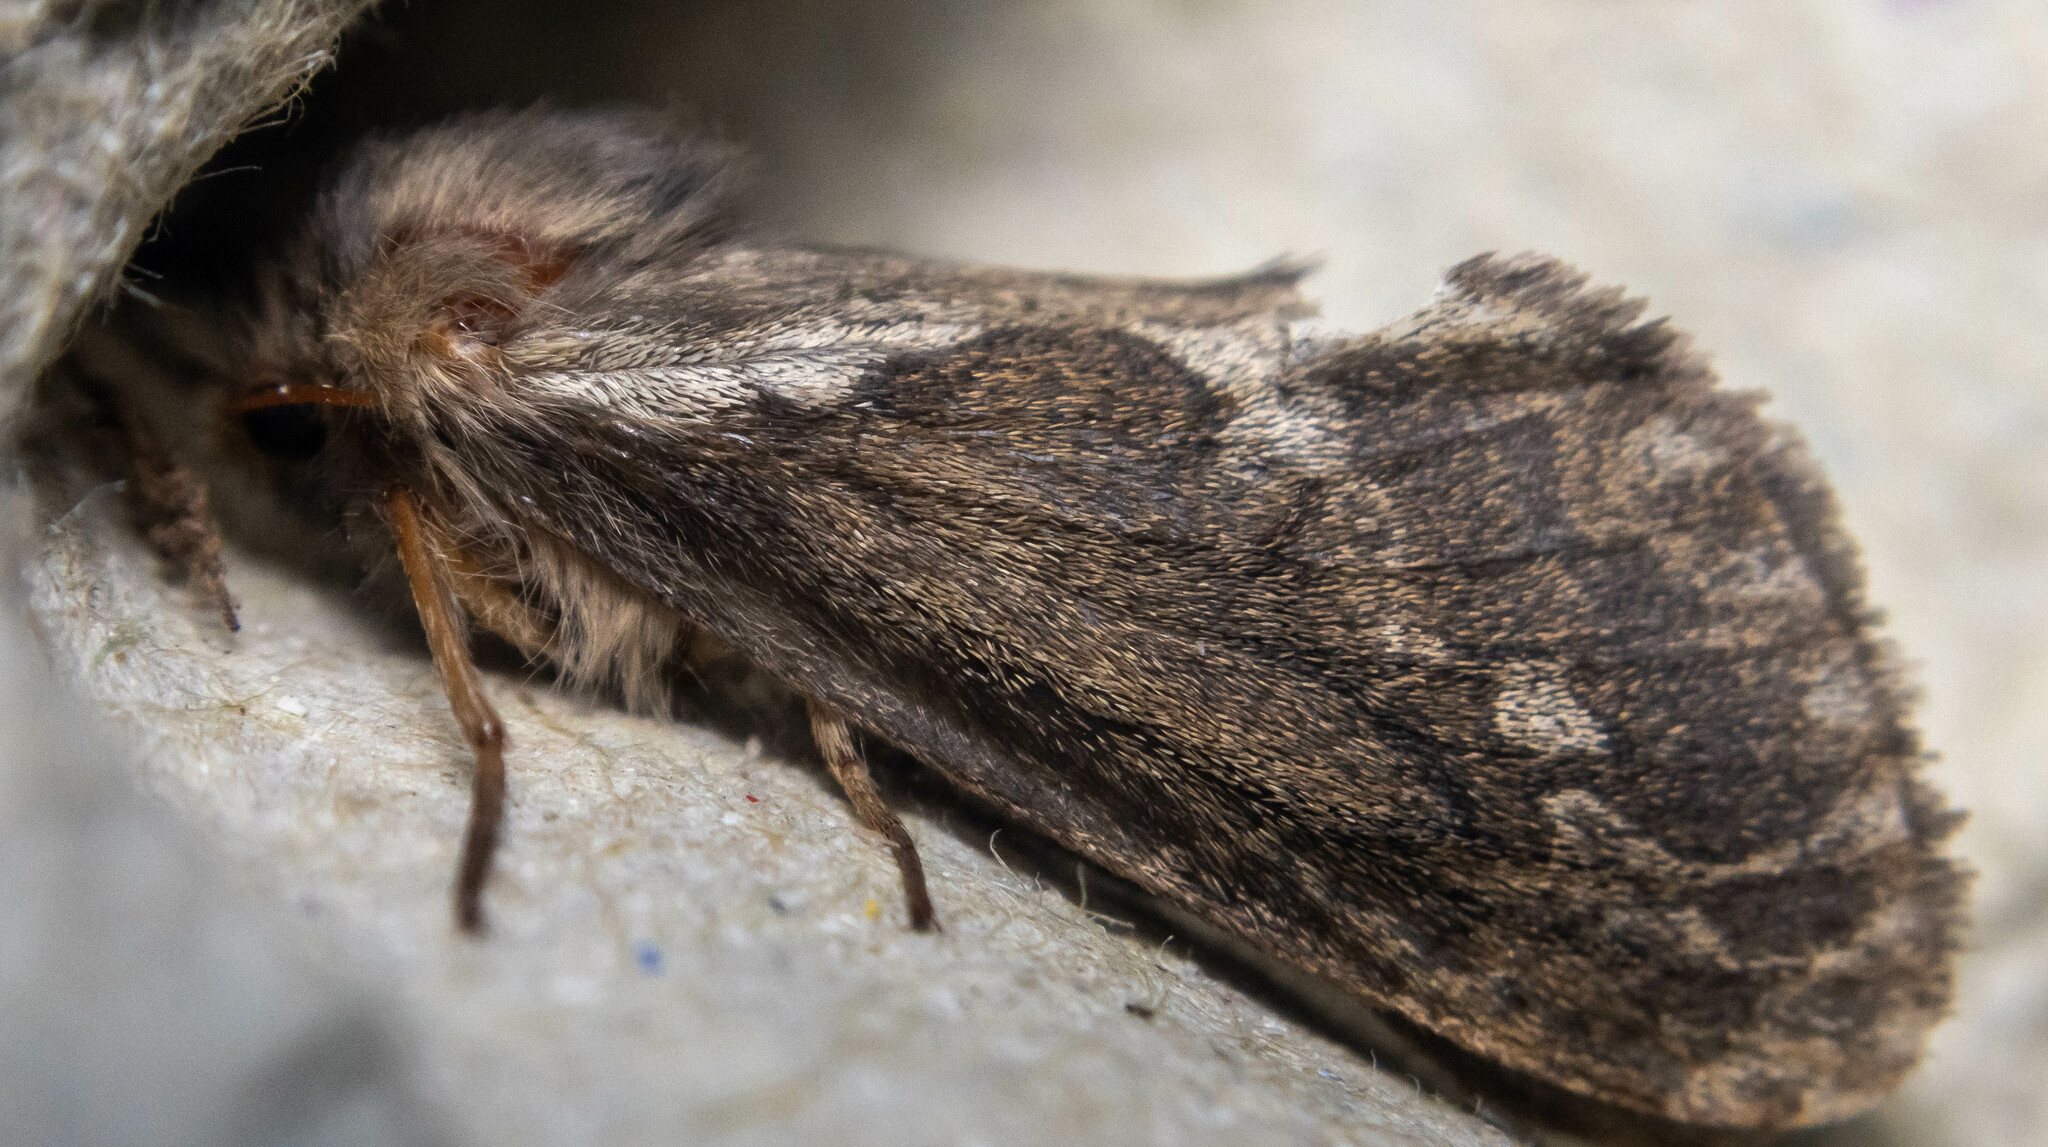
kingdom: Animalia
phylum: Arthropoda
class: Insecta
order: Lepidoptera
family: Hepialidae
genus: Korscheltellus
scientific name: Korscheltellus lupulina
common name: Common swift
